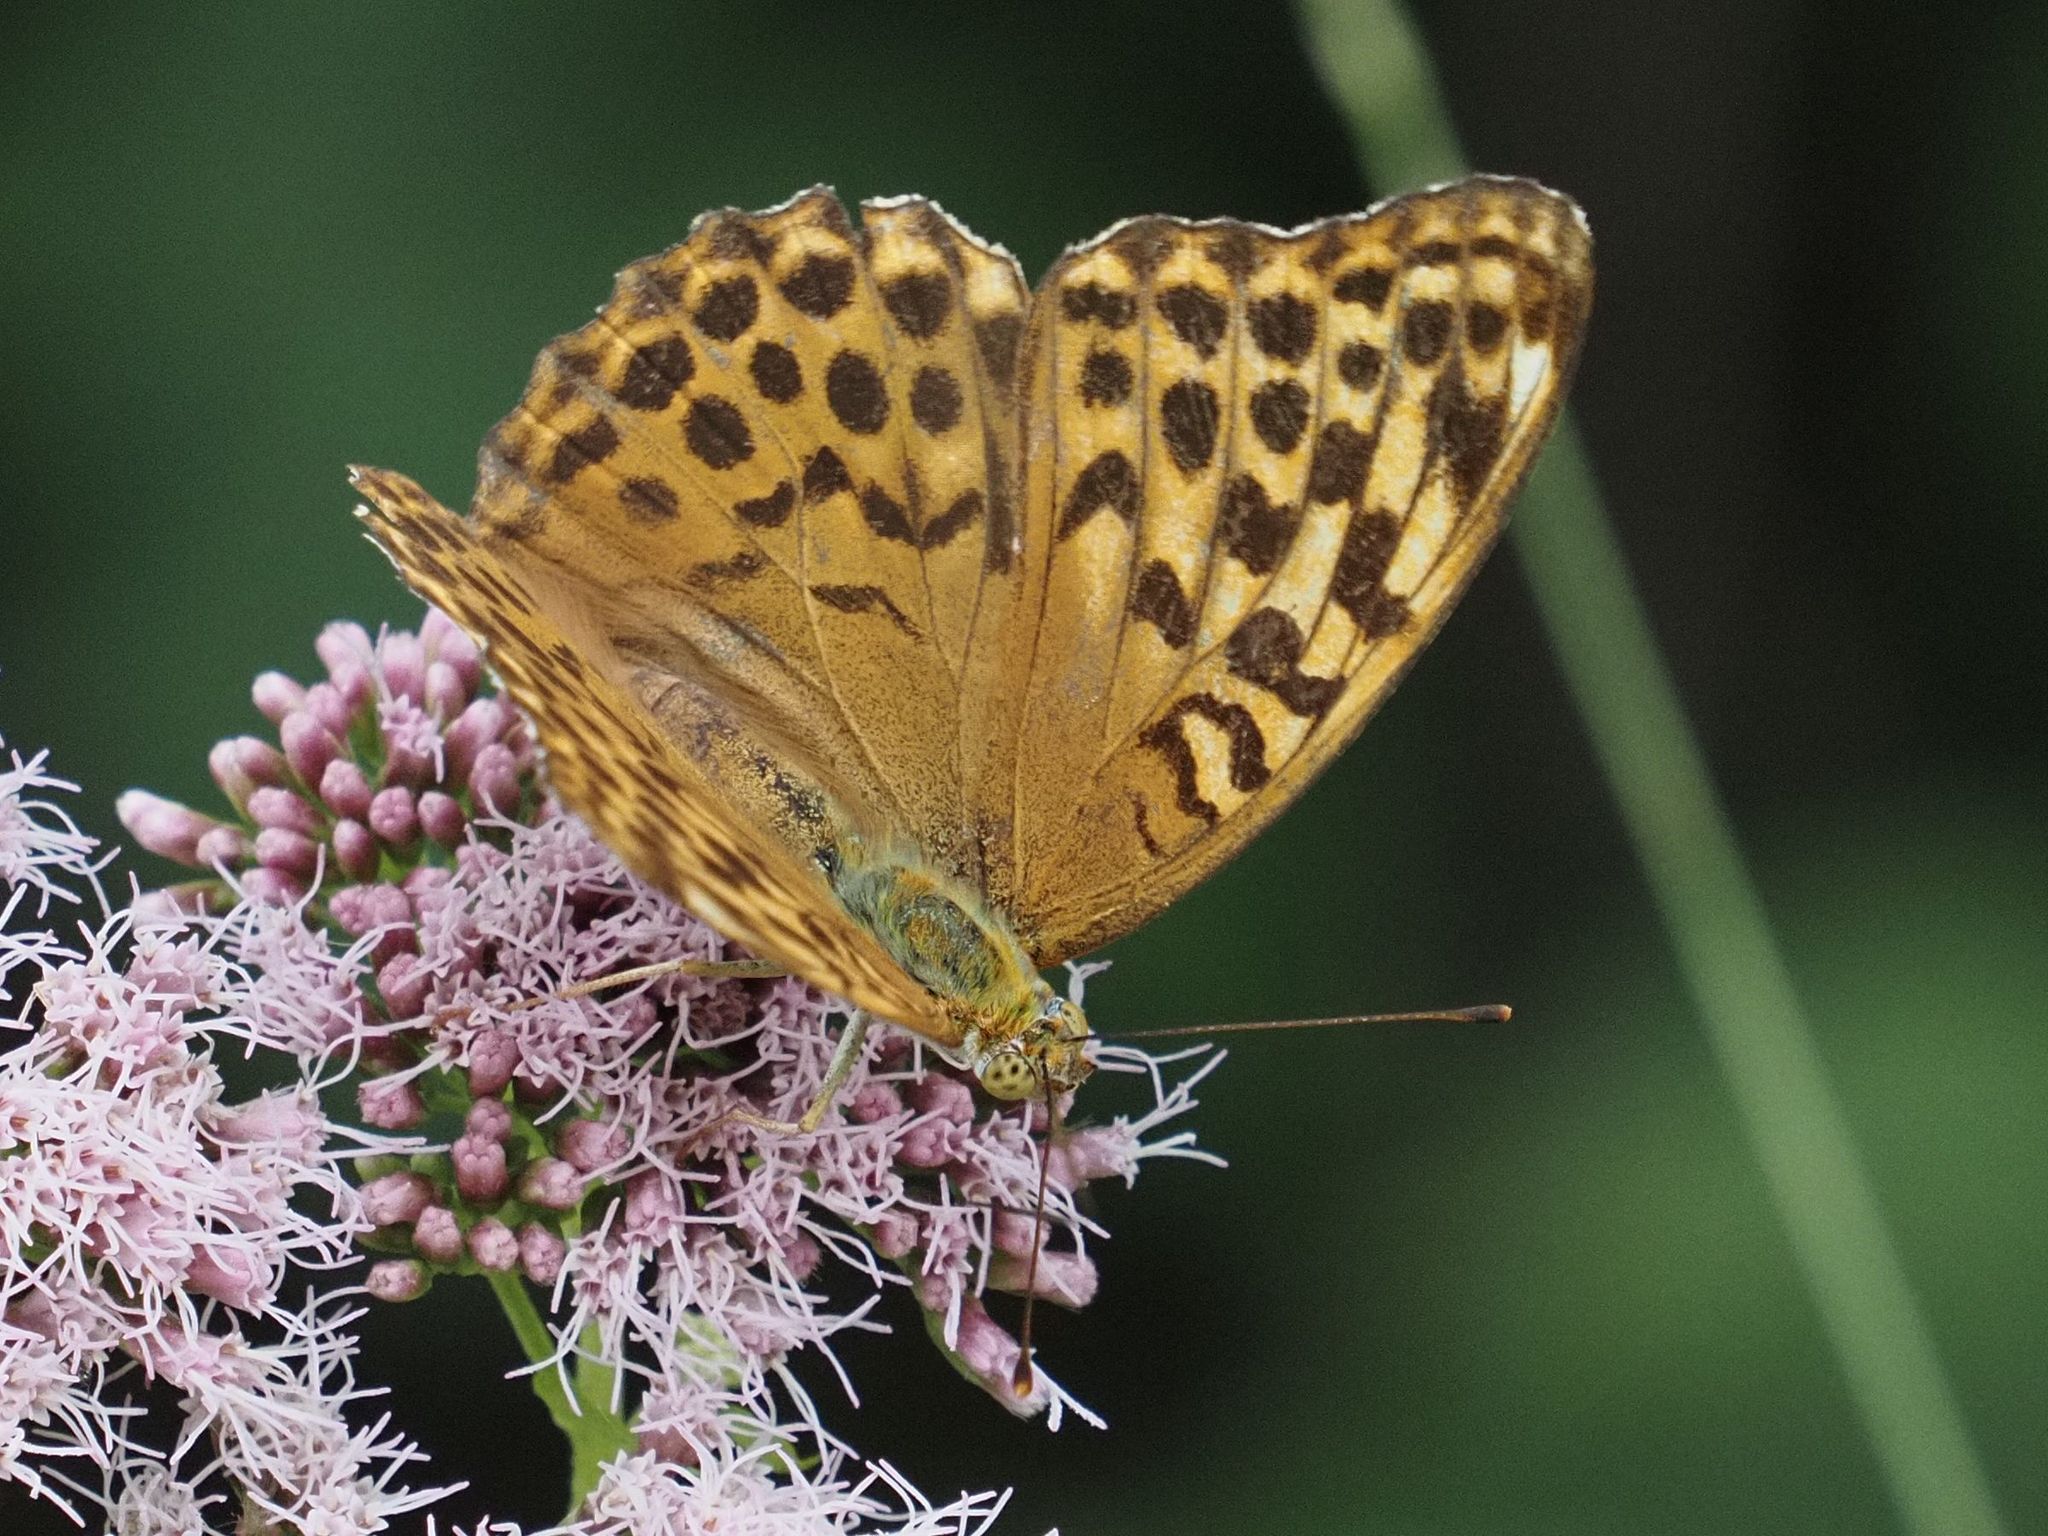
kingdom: Animalia
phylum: Arthropoda
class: Insecta
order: Lepidoptera
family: Nymphalidae
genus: Argynnis
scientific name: Argynnis paphia
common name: Silver-washed fritillary
